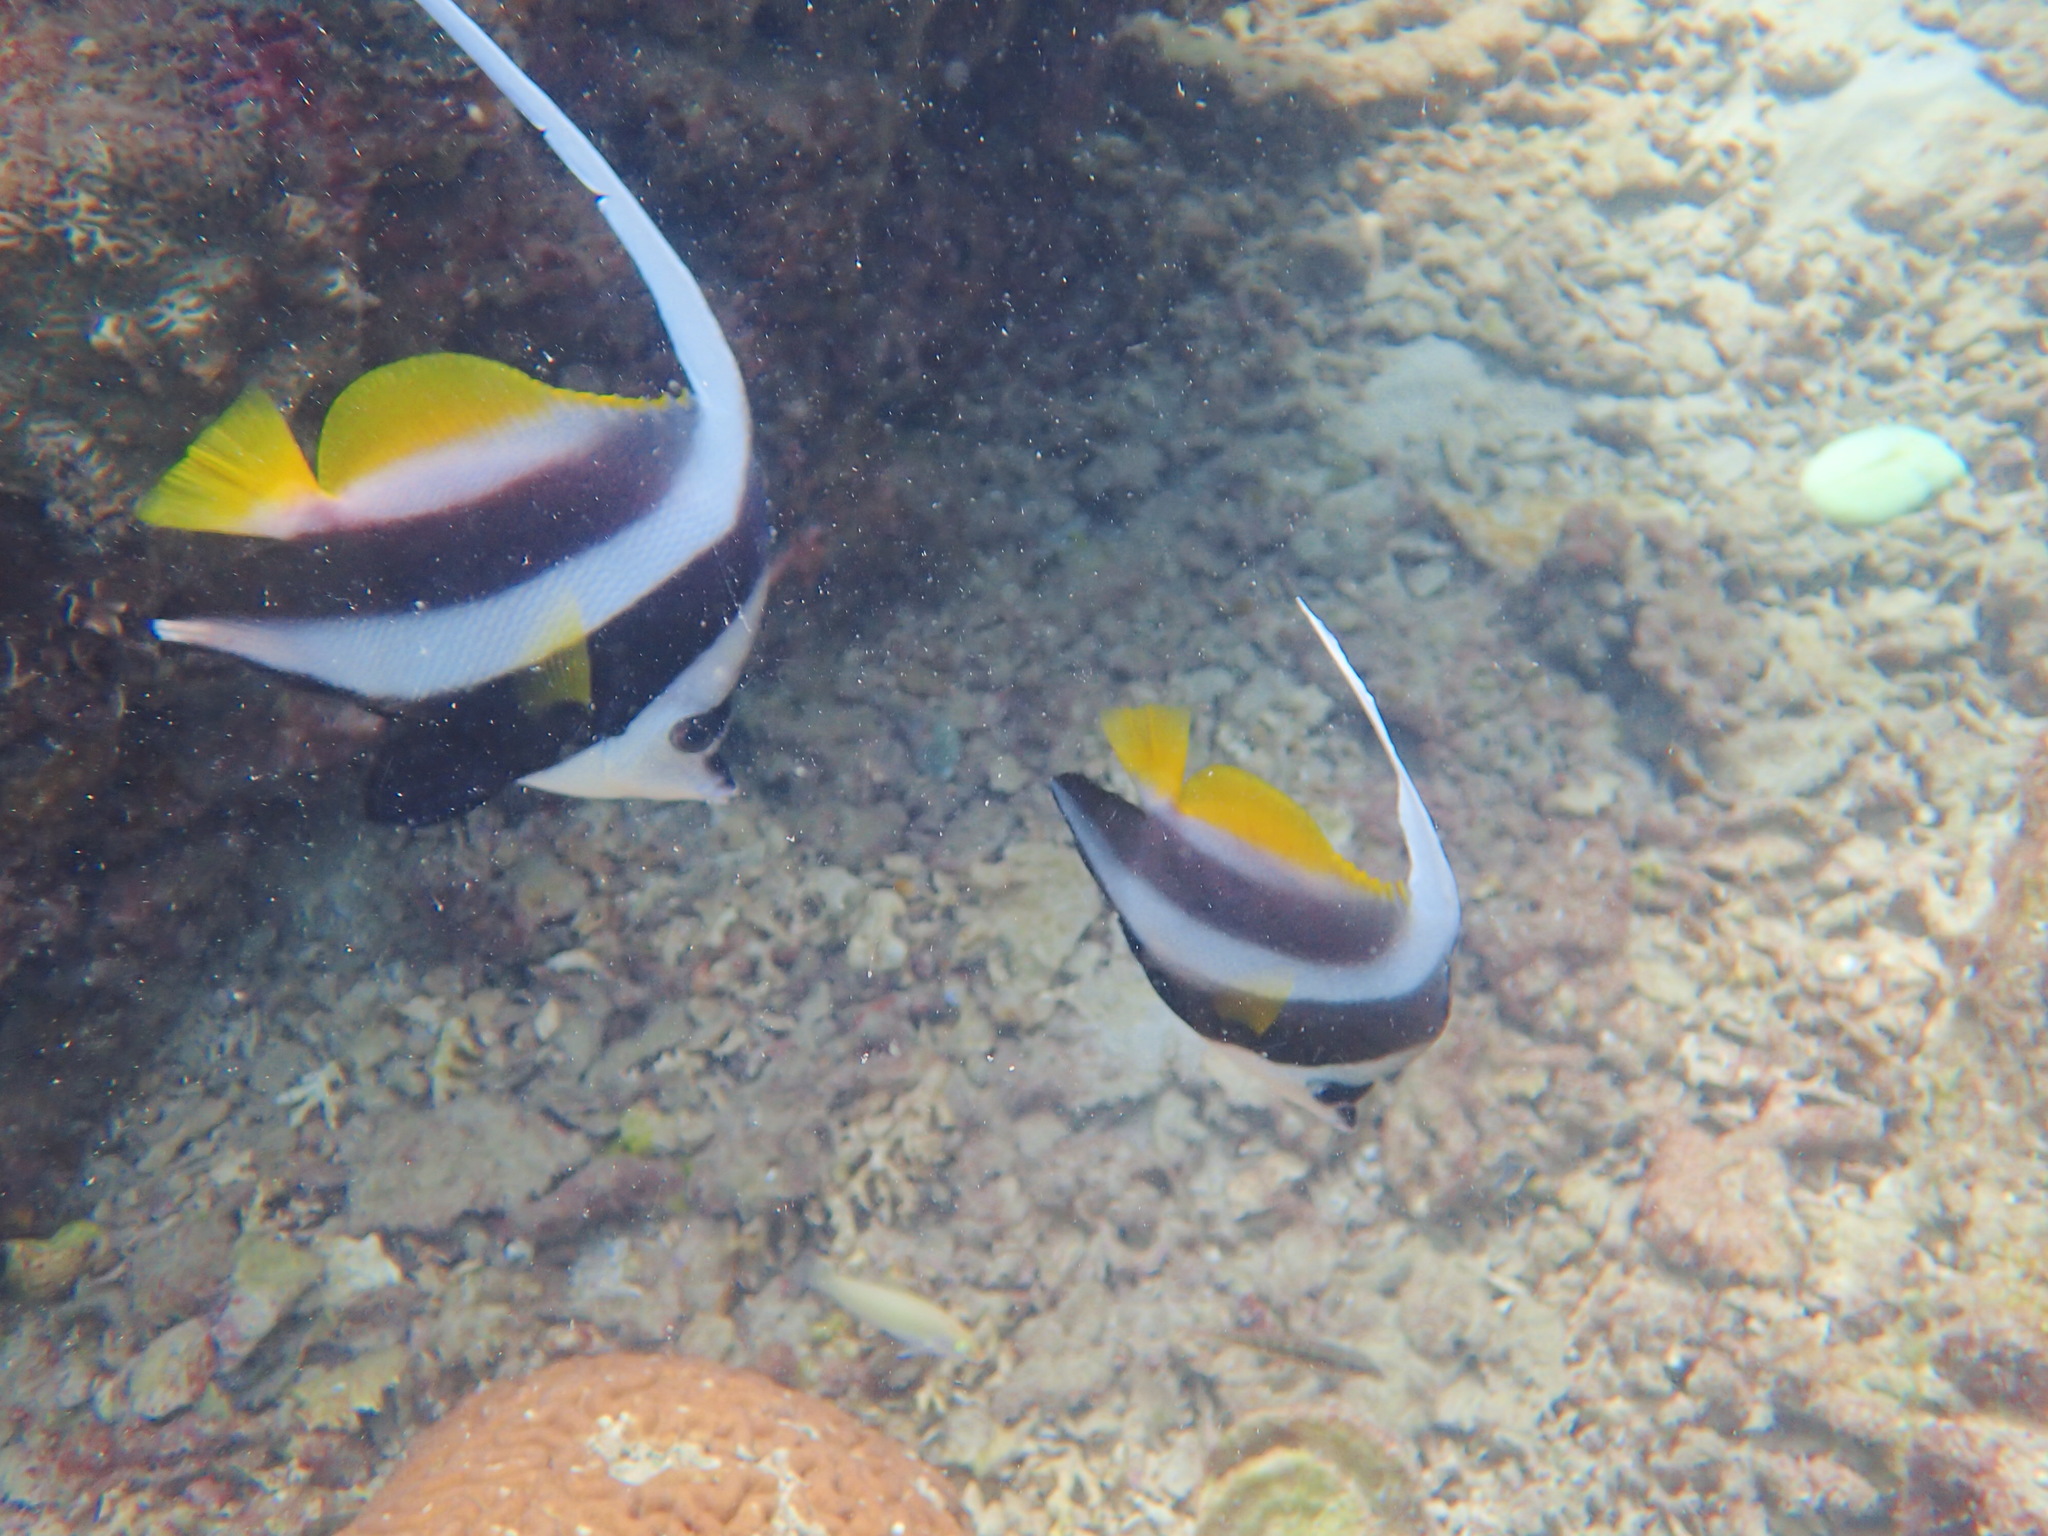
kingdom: Animalia
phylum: Chordata
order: Perciformes
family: Chaetodontidae
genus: Heniochus
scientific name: Heniochus acuminatus
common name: Pennant coralfish
